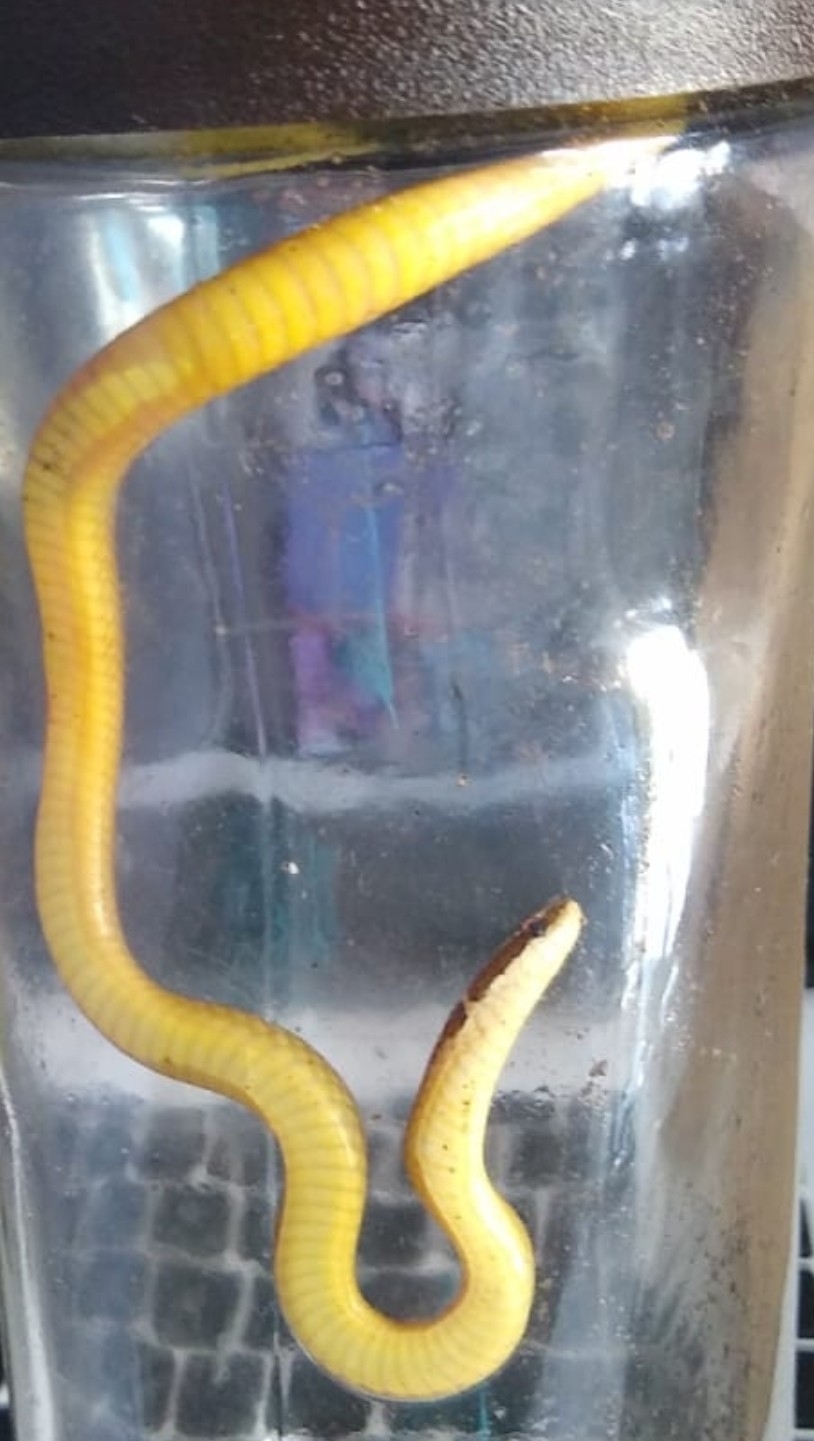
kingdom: Animalia
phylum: Chordata
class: Squamata
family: Colubridae
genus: Coniophanes
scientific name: Coniophanes imperialis
